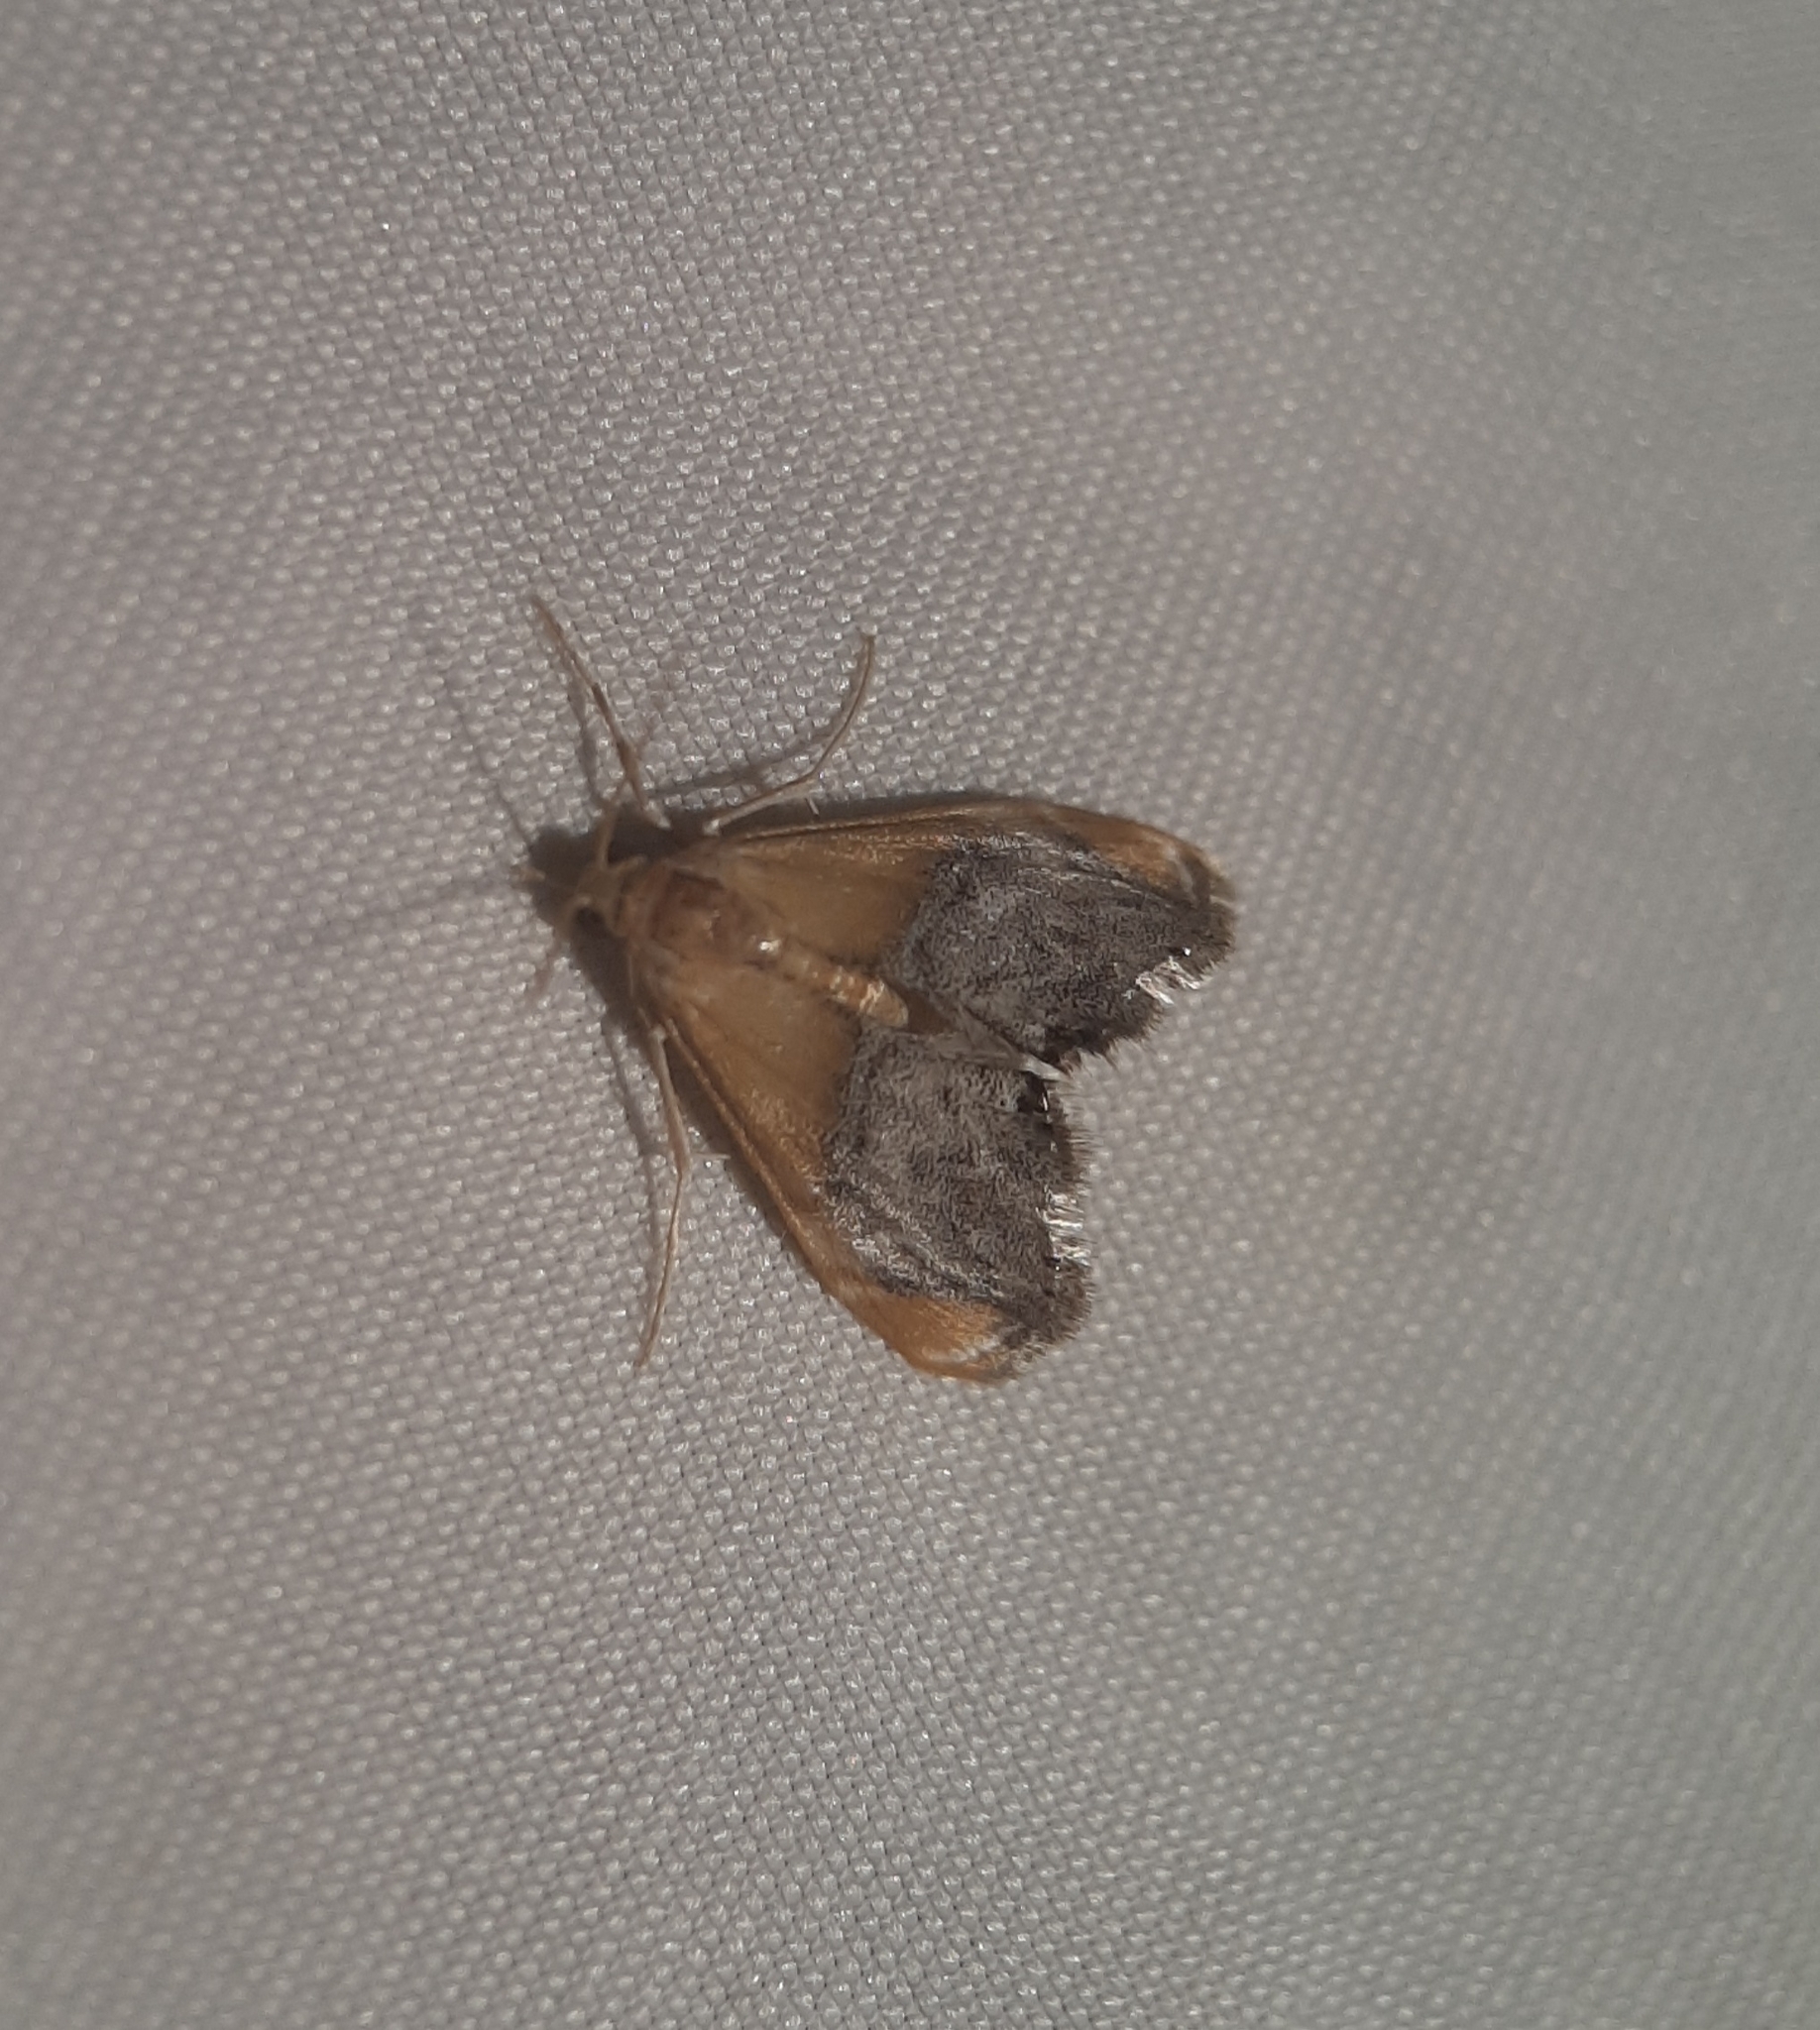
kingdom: Animalia
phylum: Arthropoda
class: Insecta
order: Lepidoptera
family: Crambidae
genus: Chalcoela
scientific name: Chalcoela iphitalis
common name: Sooty-winged chalcoela moth
